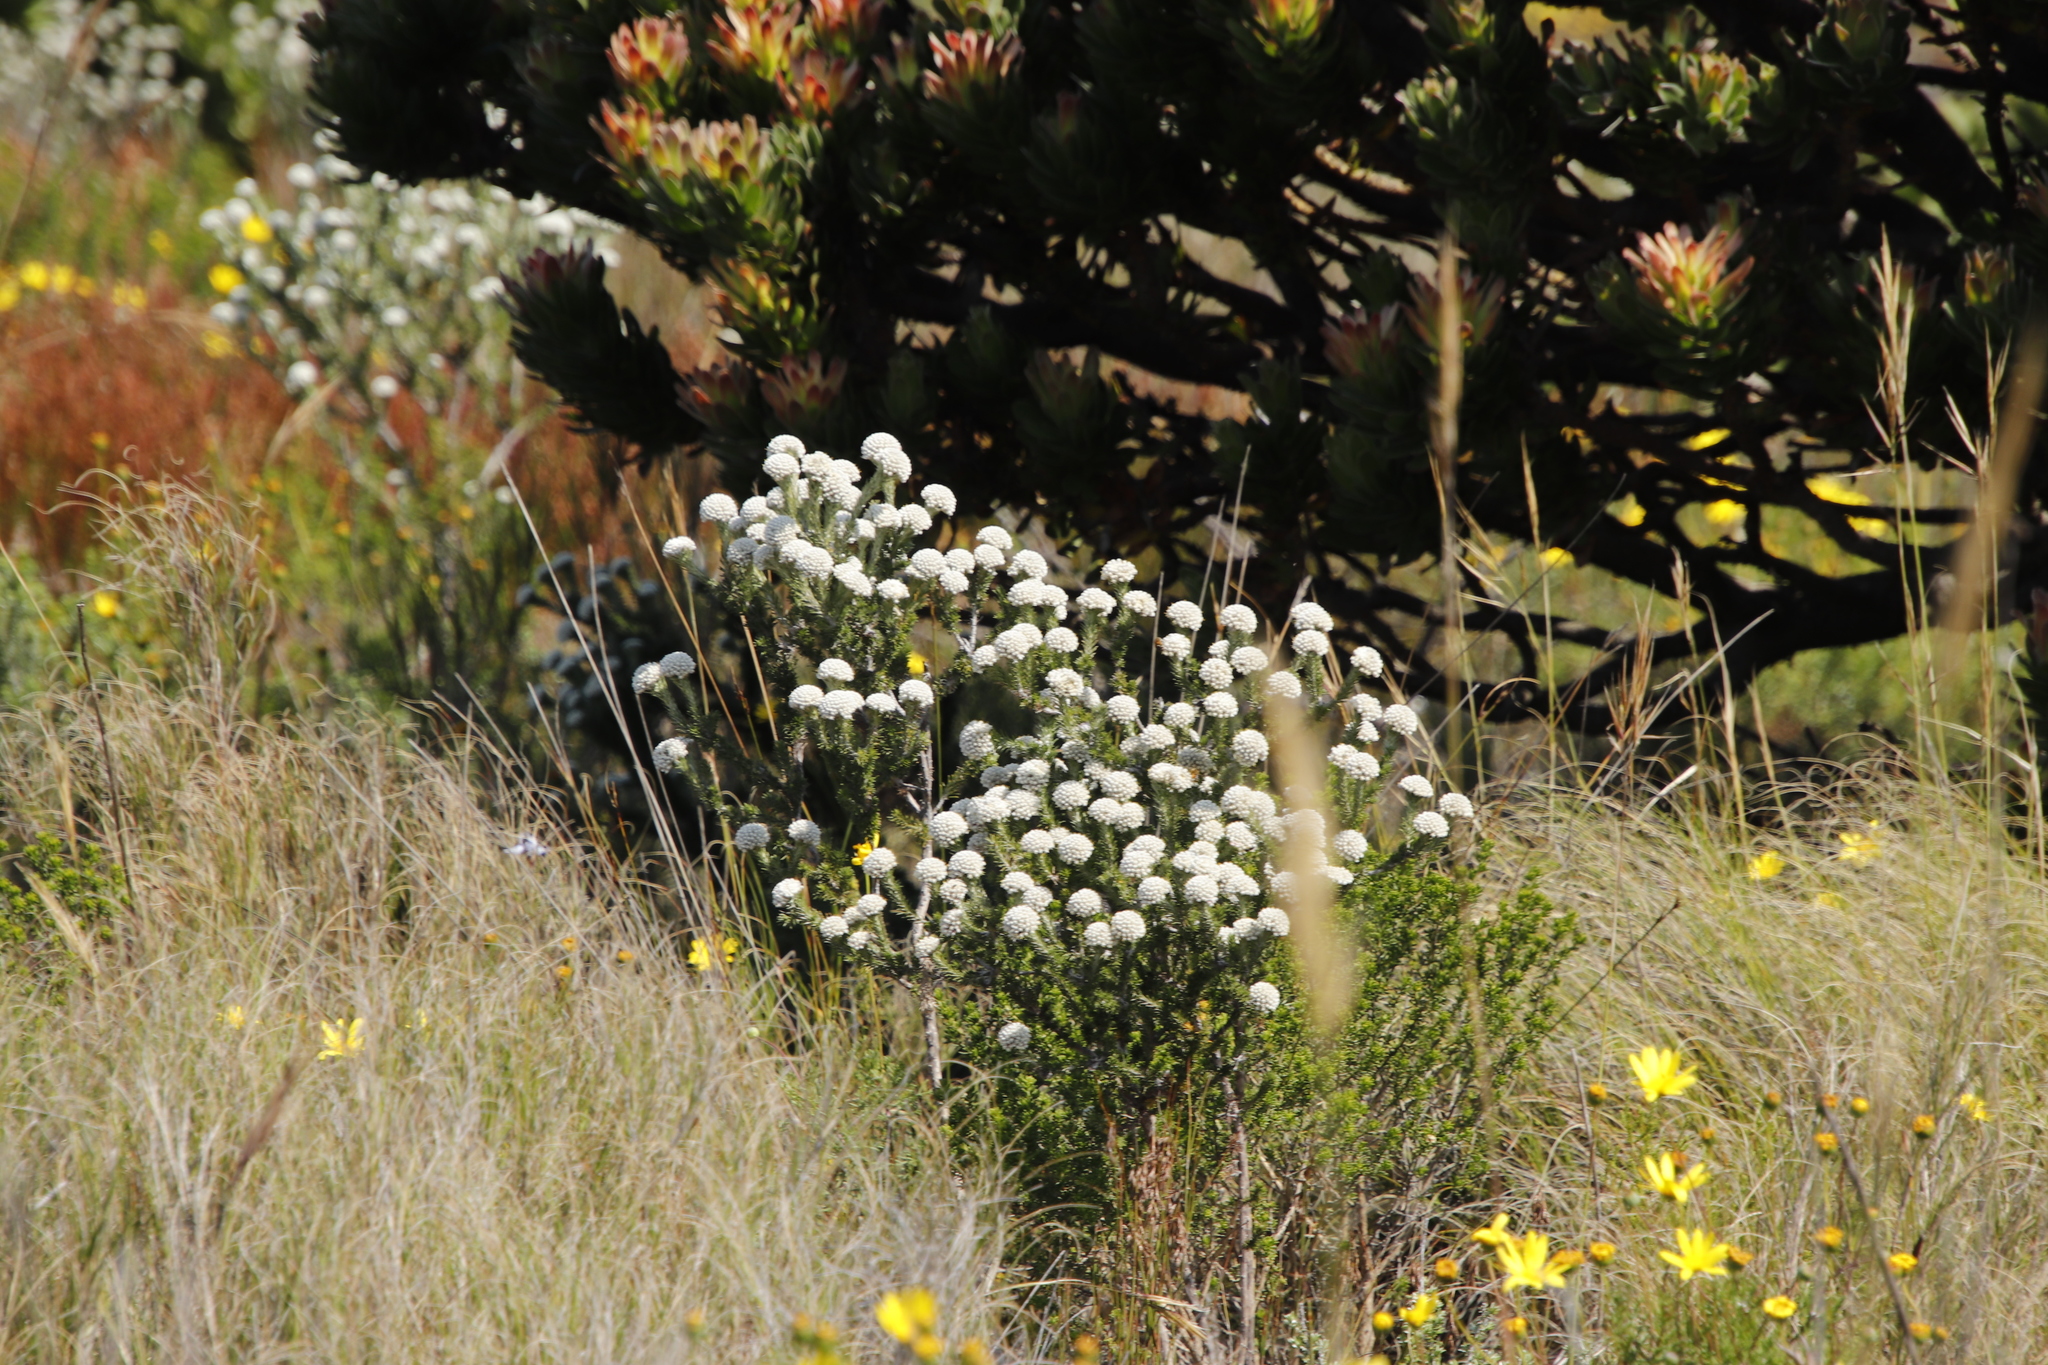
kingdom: Plantae
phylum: Tracheophyta
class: Magnoliopsida
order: Asterales
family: Asteraceae
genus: Metalasia
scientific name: Metalasia compacta
